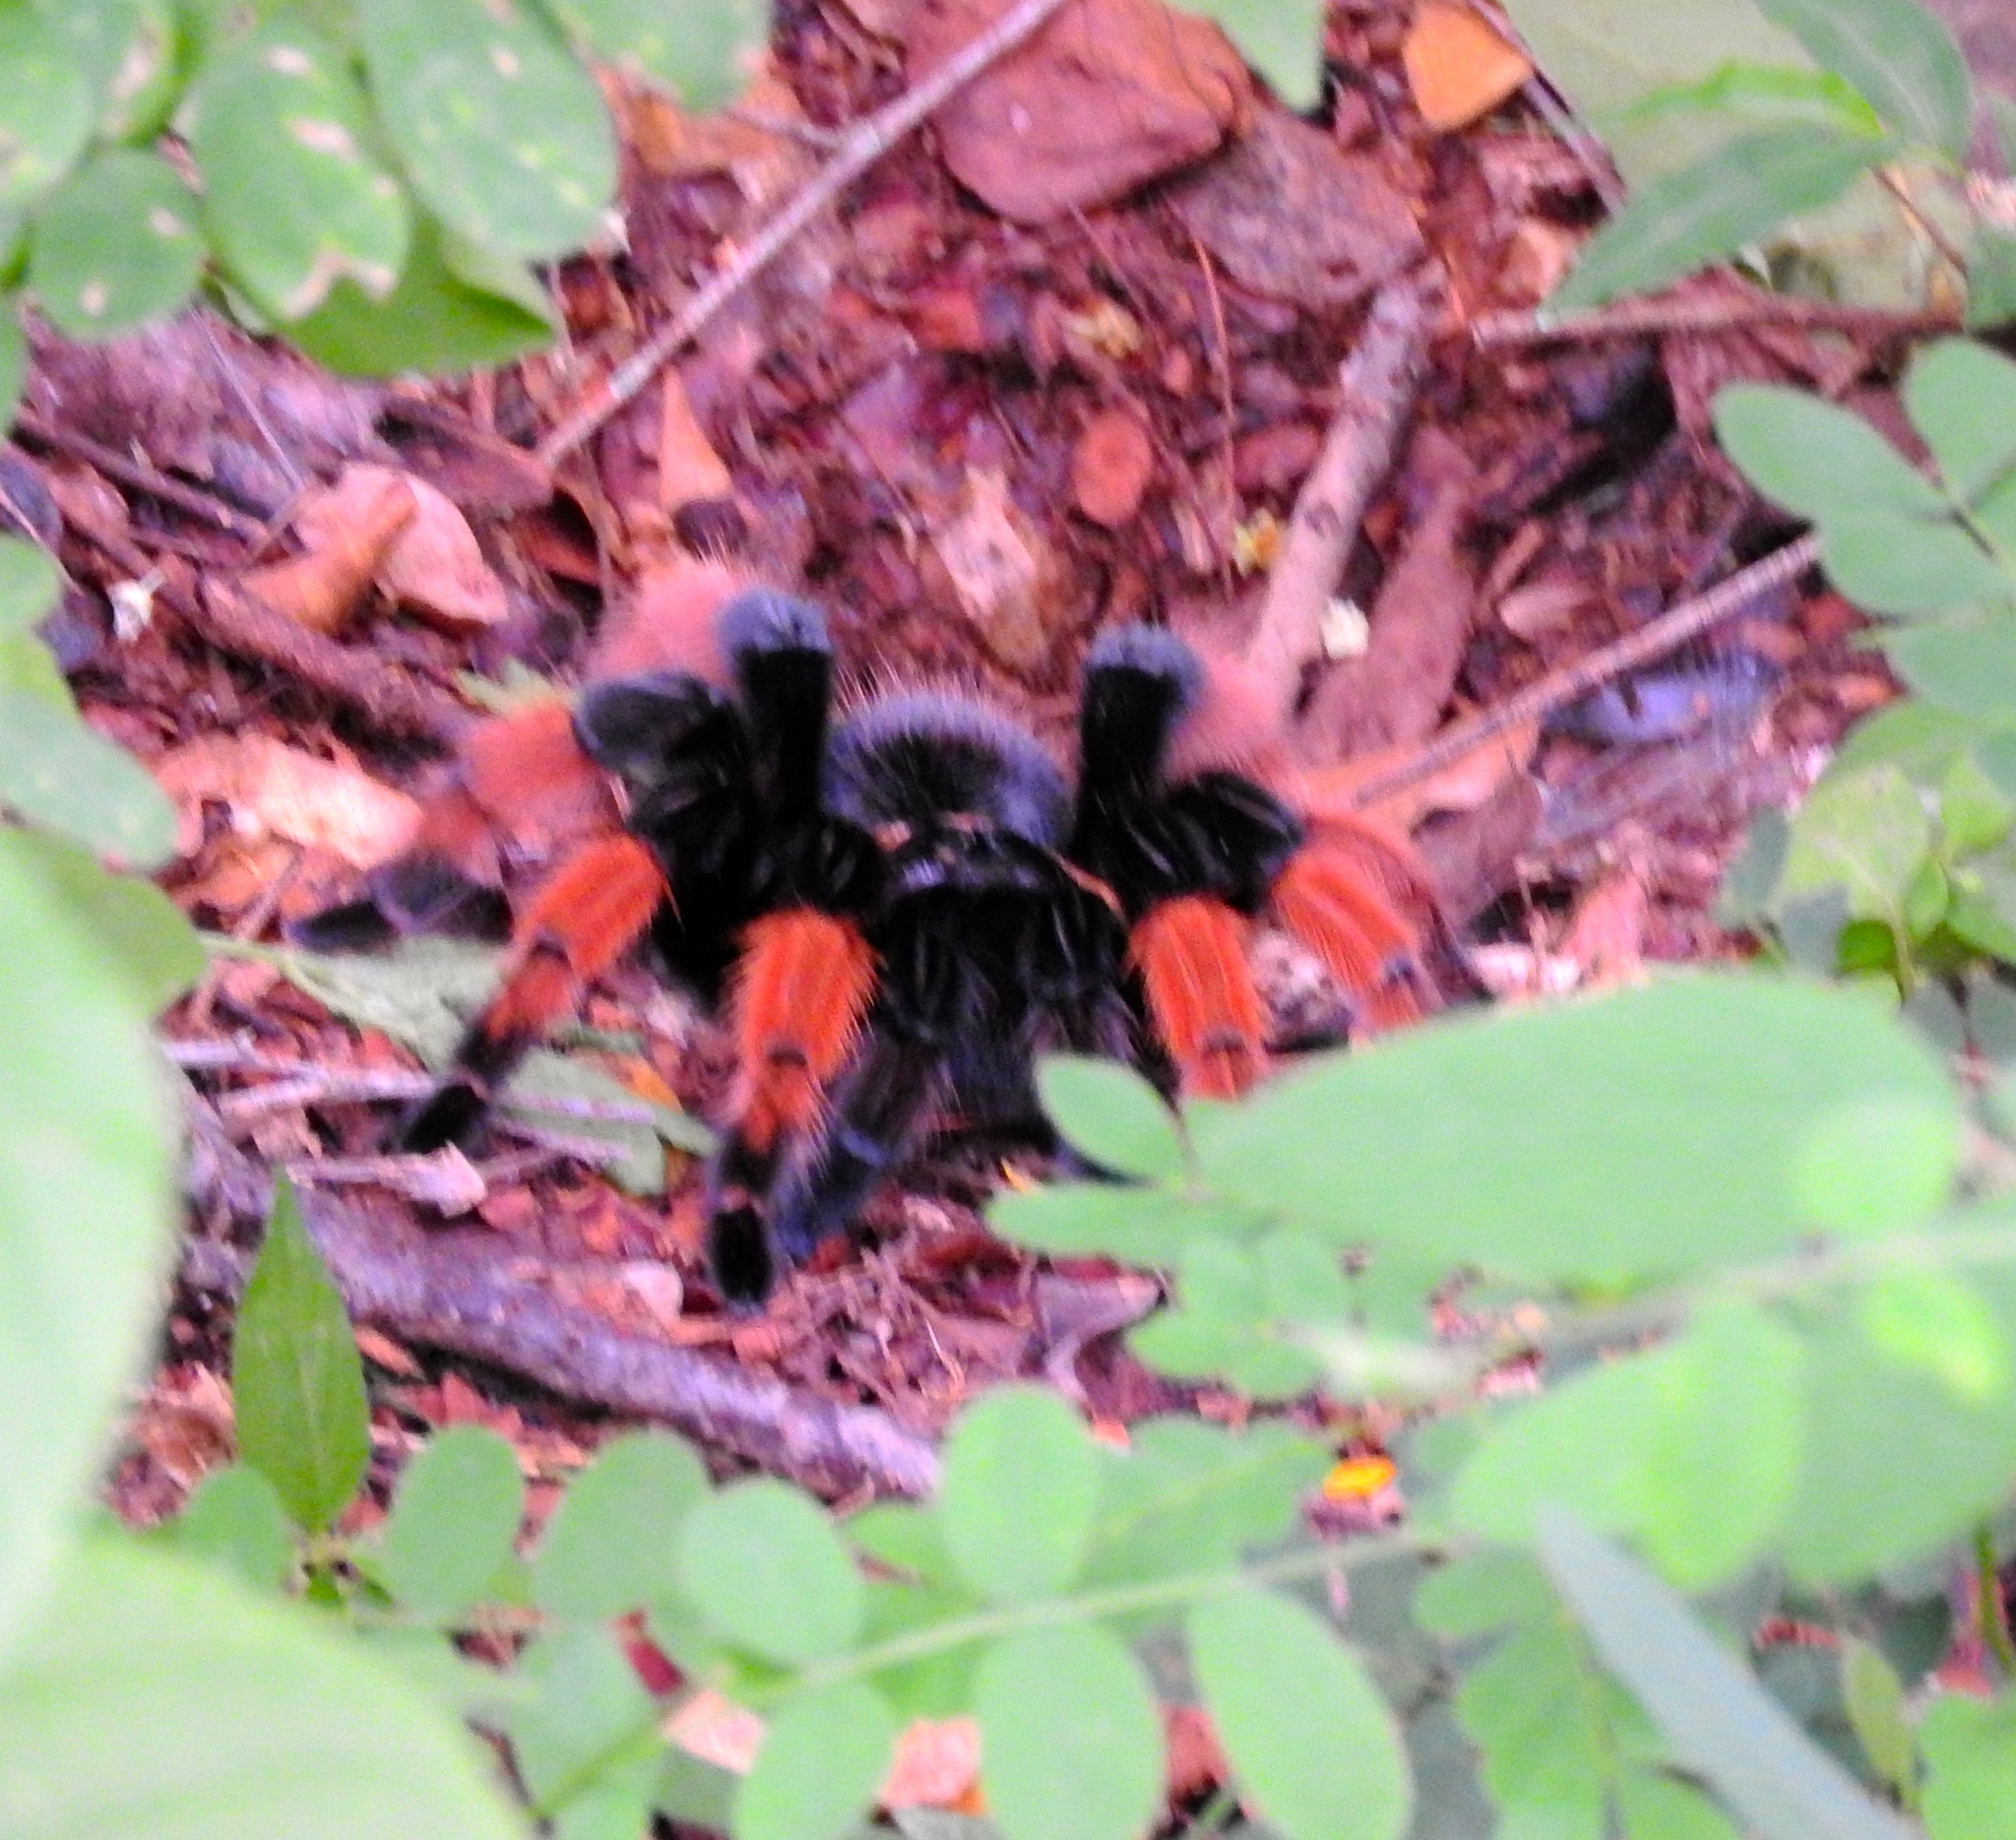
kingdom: Animalia
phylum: Arthropoda
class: Arachnida
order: Araneae
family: Theraphosidae
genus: Brachypelma
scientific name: Brachypelma emilia
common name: Mexican redleg
